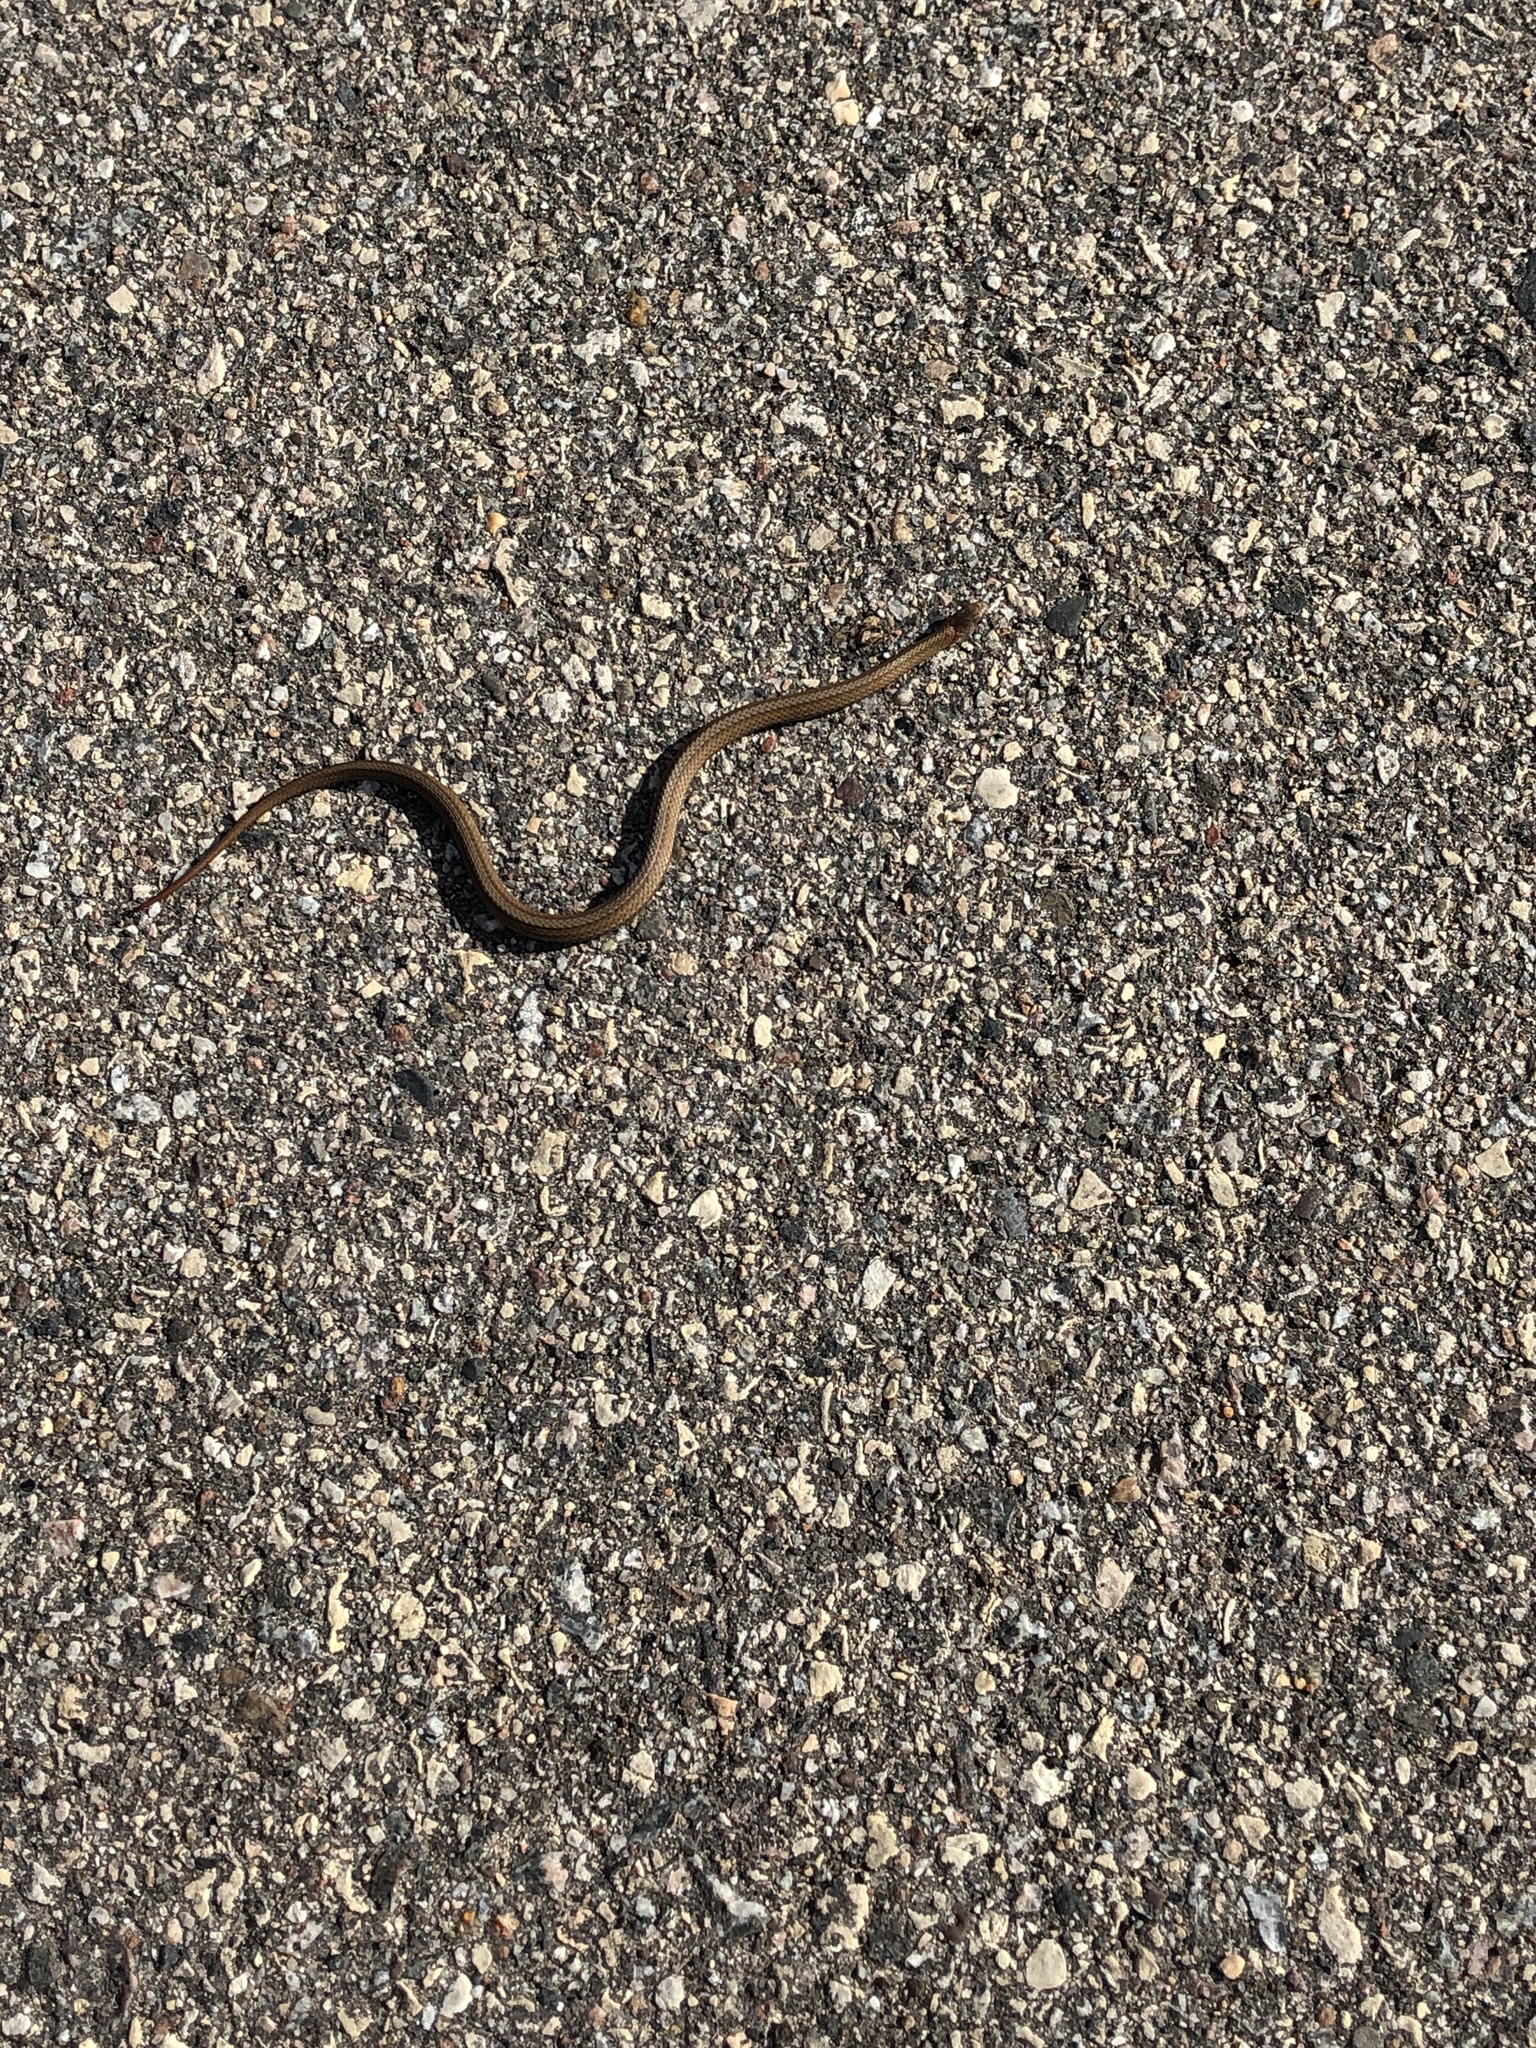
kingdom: Animalia
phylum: Chordata
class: Squamata
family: Colubridae
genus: Storeria
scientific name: Storeria occipitomaculata
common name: Redbelly snake
